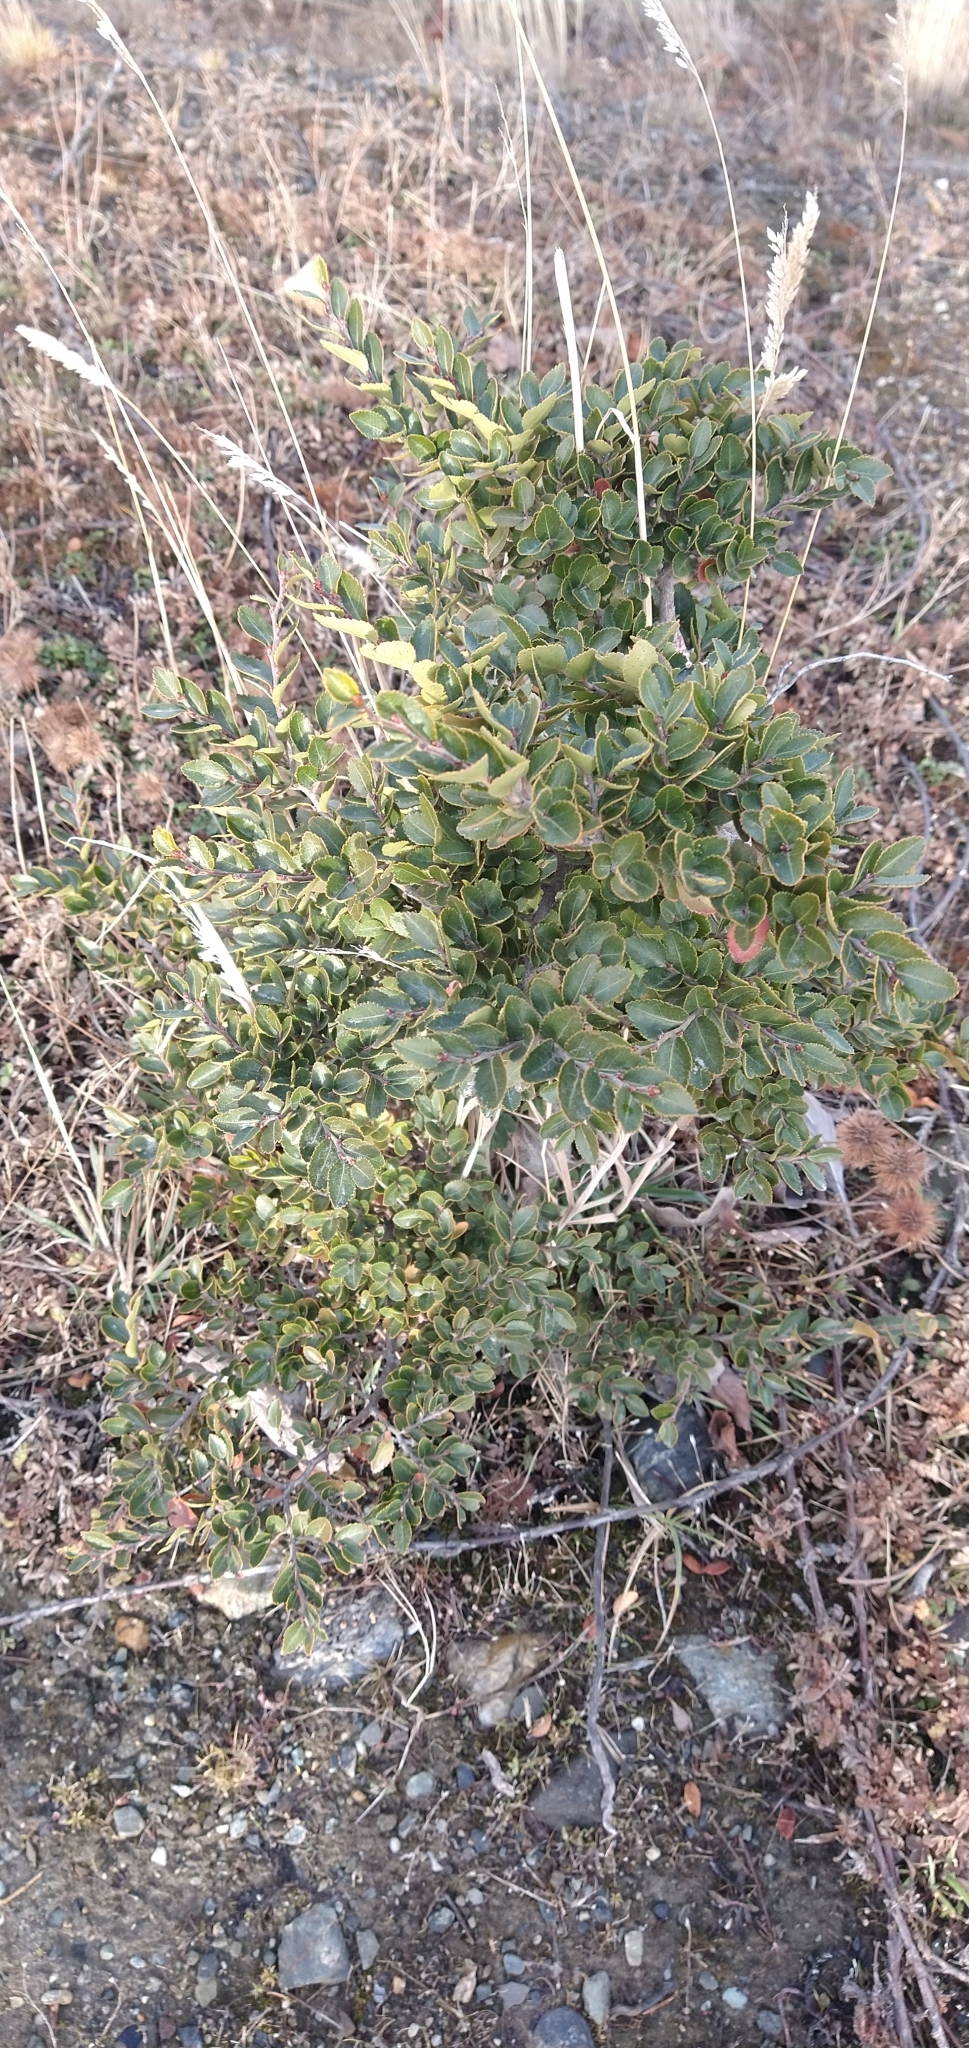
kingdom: Plantae
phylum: Tracheophyta
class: Magnoliopsida
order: Fagales
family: Nothofagaceae
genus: Nothofagus
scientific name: Nothofagus betuloides
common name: Magellan's beech
